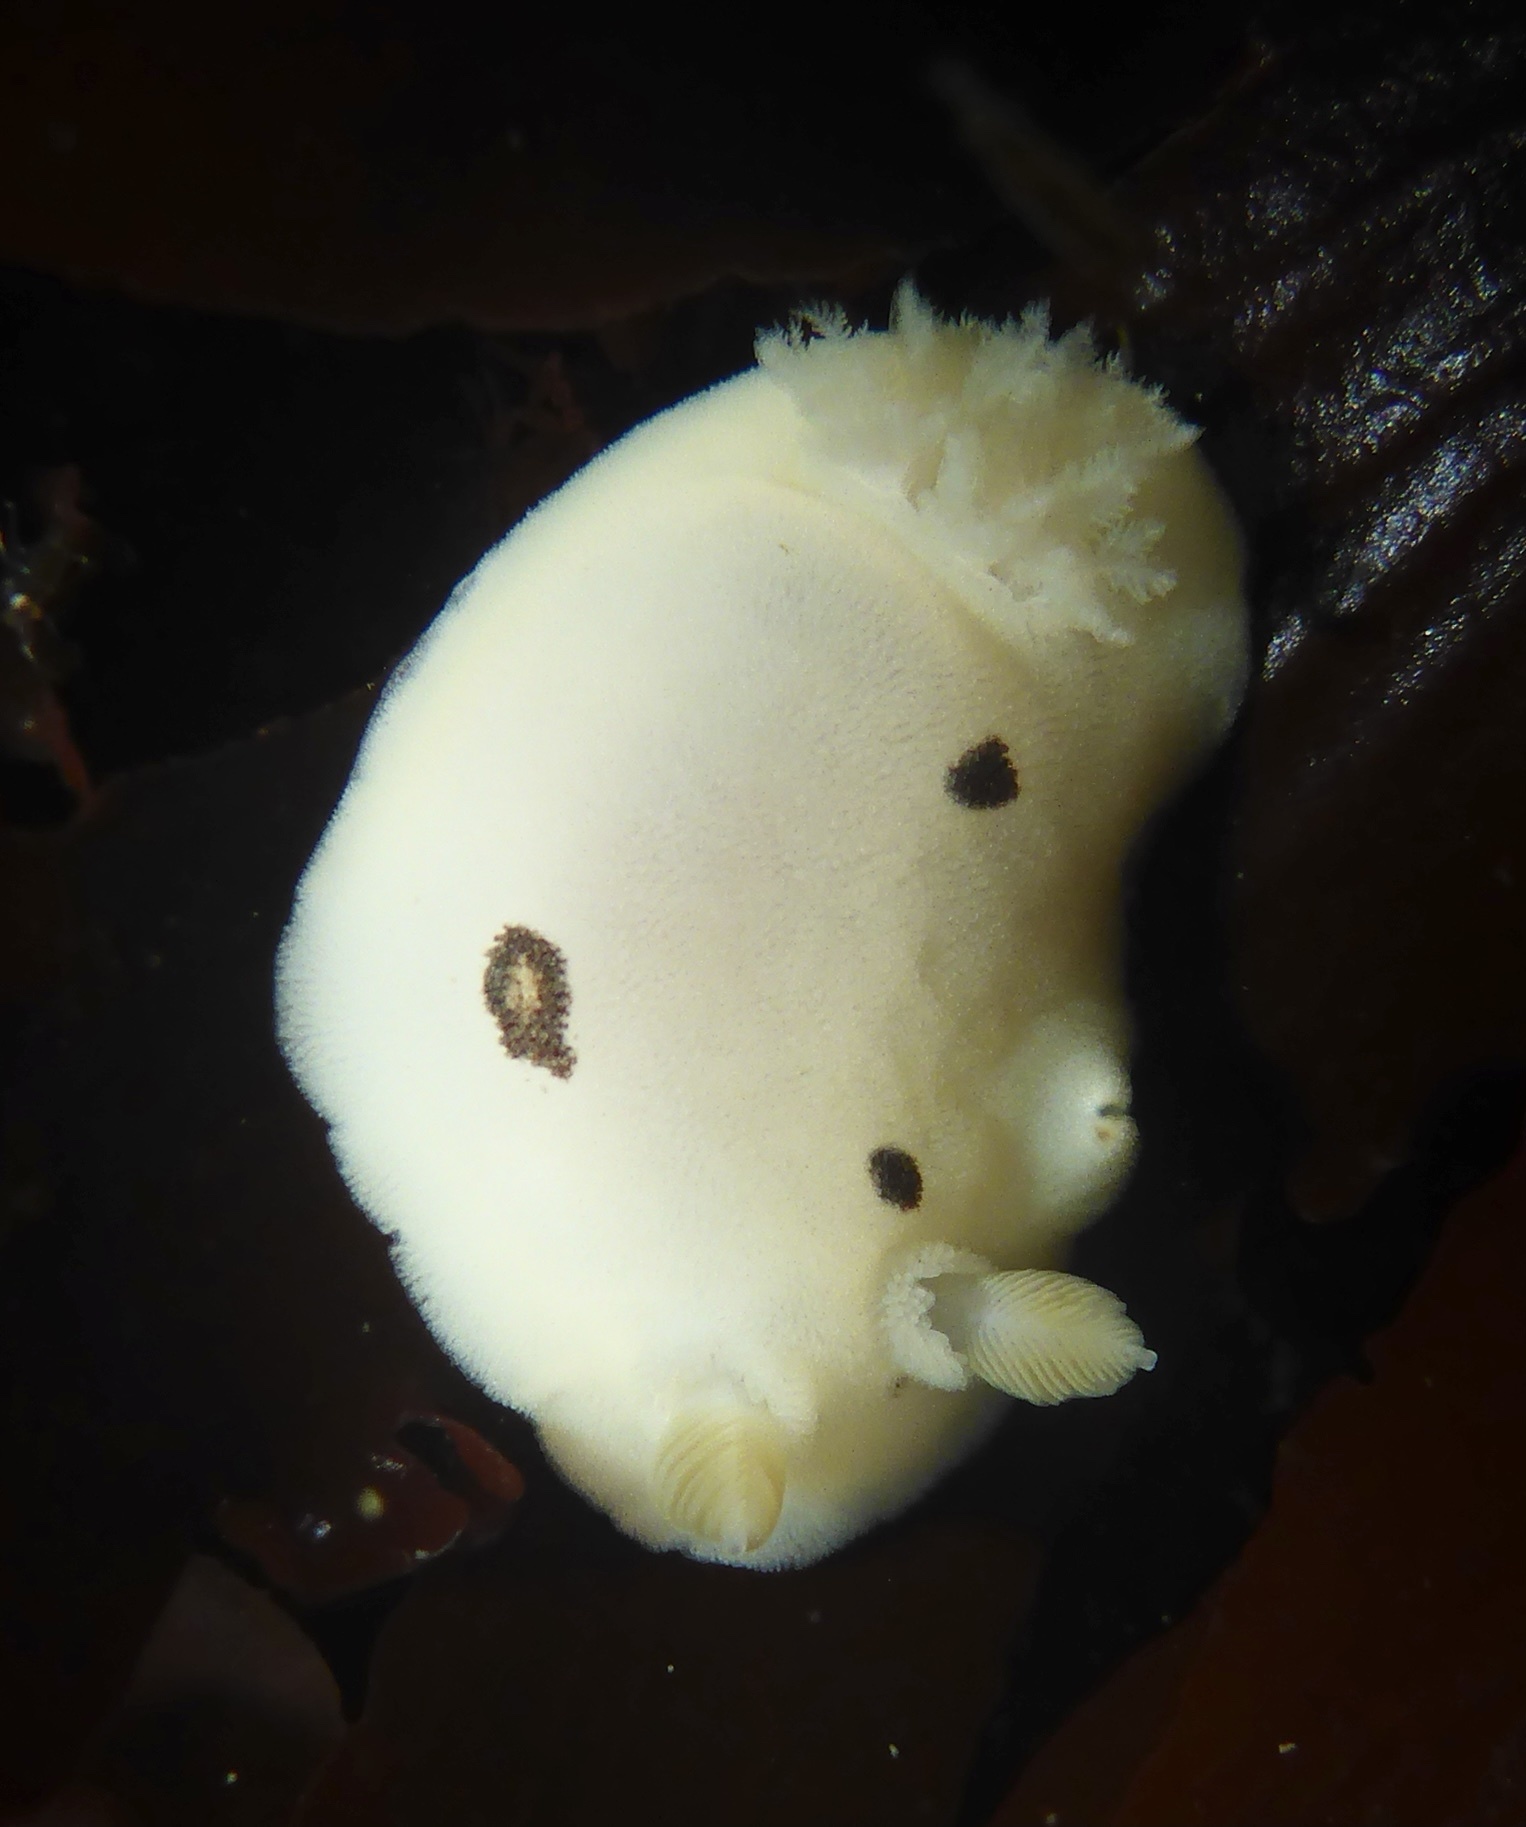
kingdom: Animalia
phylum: Mollusca
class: Gastropoda
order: Nudibranchia
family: Discodorididae
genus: Diaulula
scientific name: Diaulula sandiegensis
